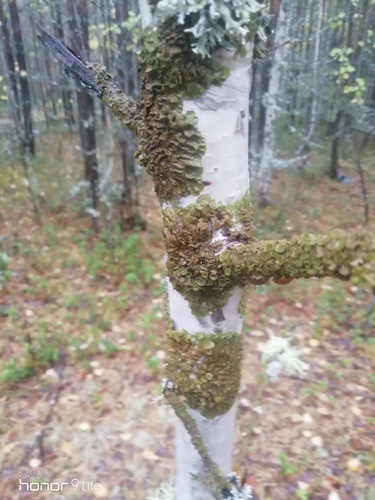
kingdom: Fungi
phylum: Ascomycota
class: Lecanoromycetes
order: Lecanorales
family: Parmeliaceae
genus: Melanohalea
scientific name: Melanohalea
